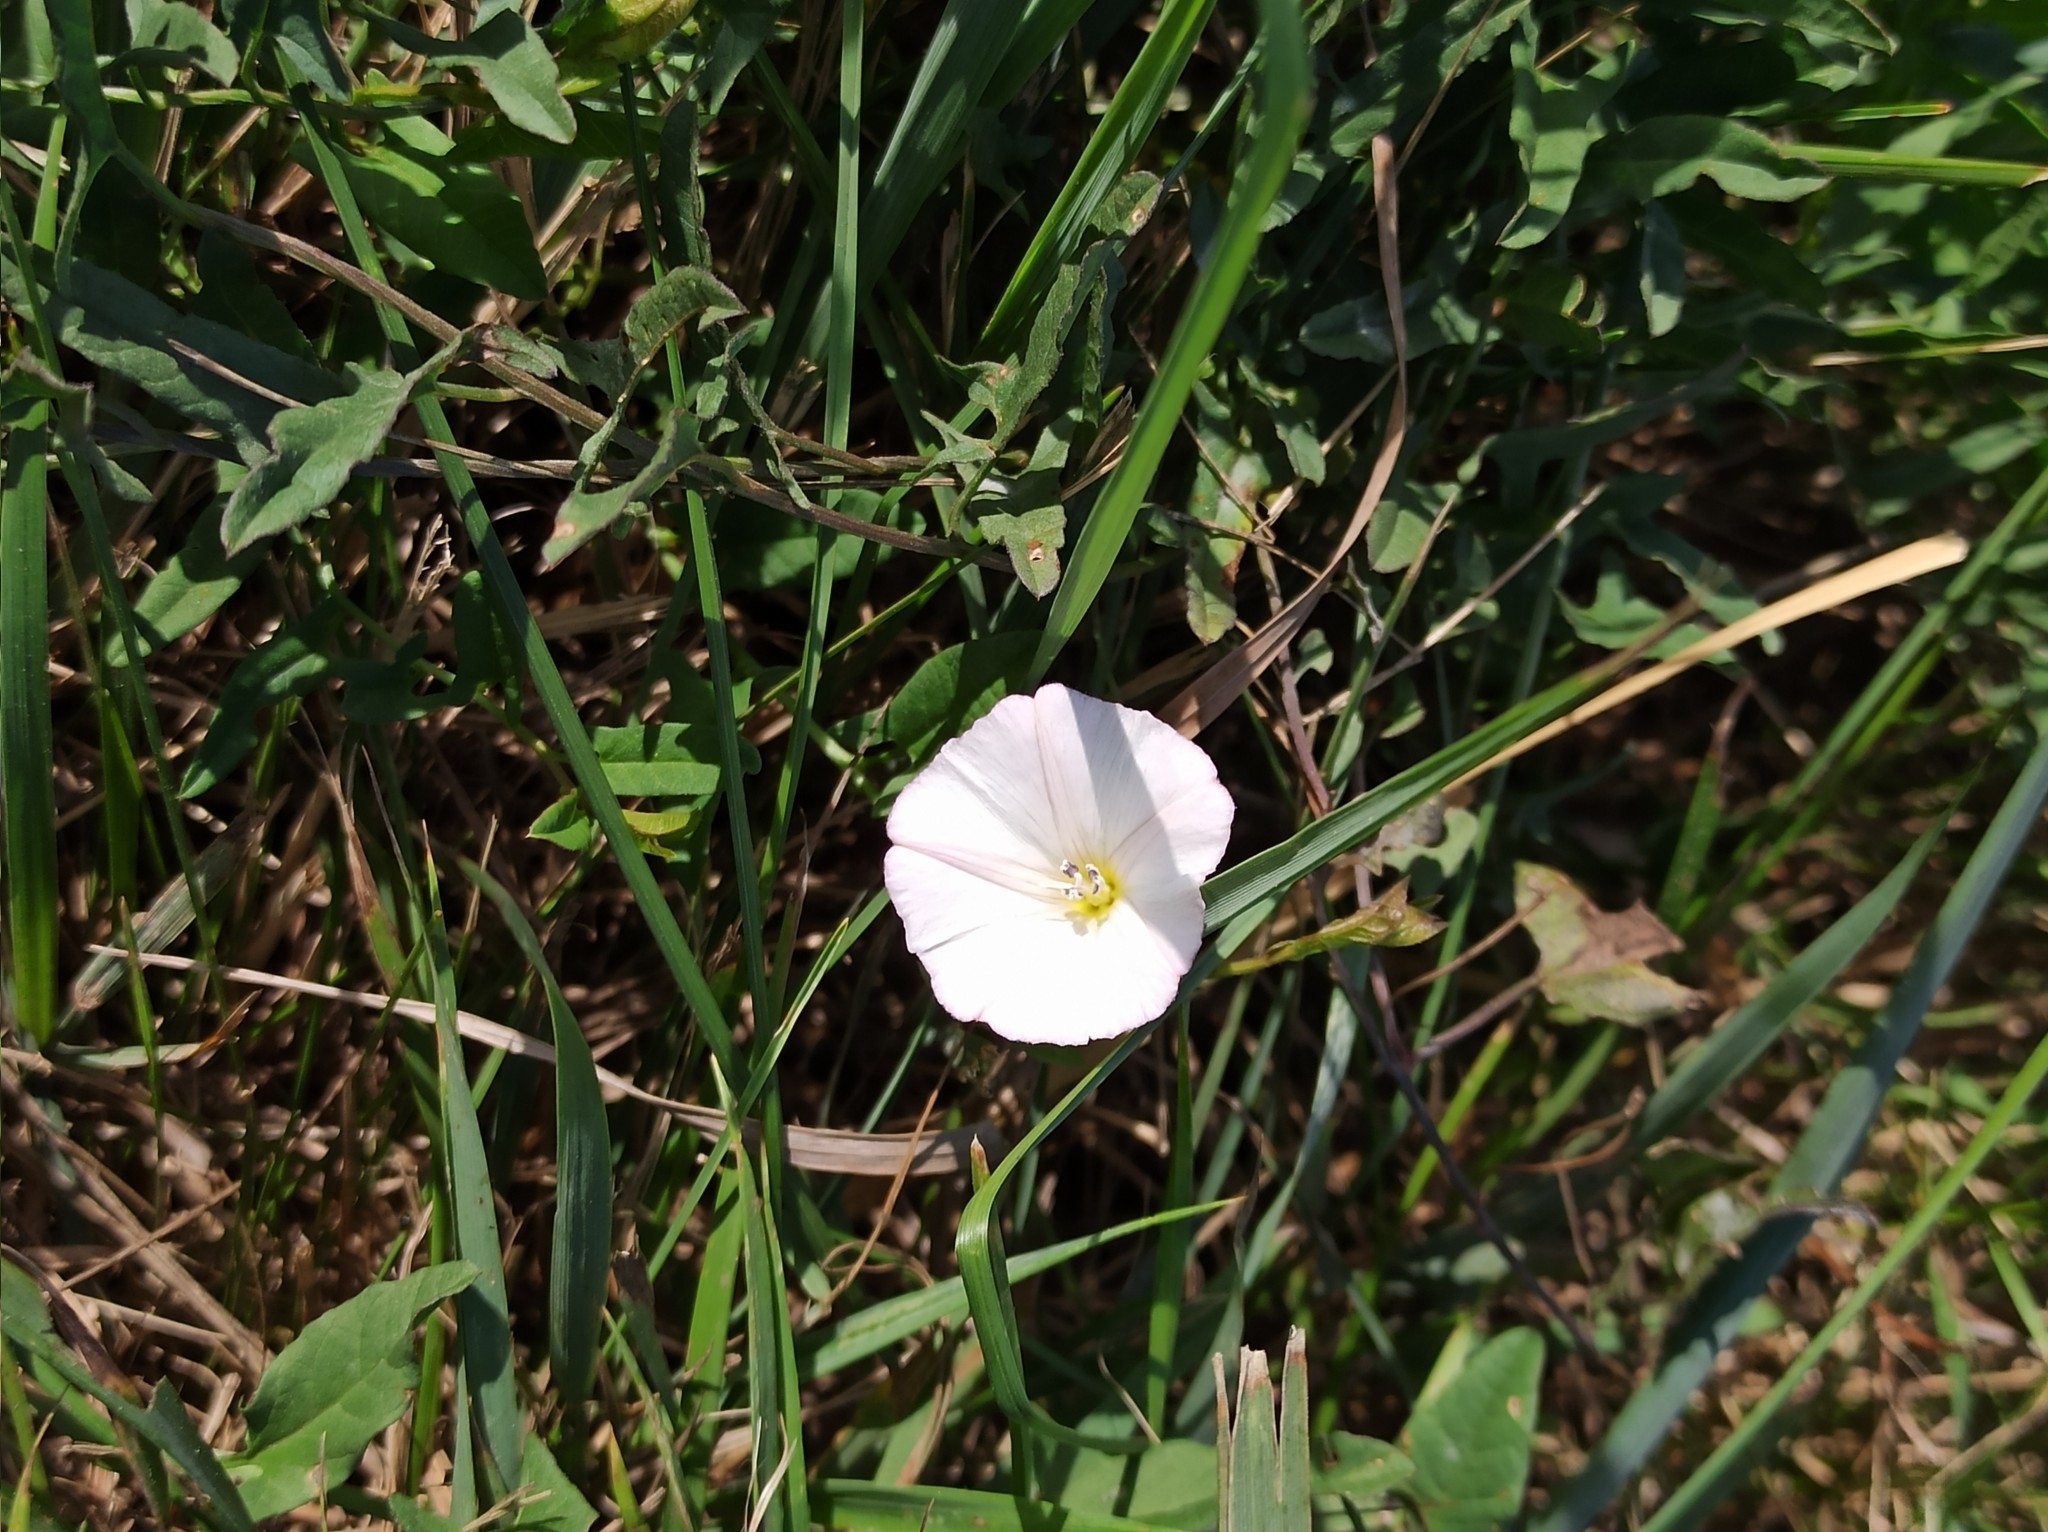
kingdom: Plantae
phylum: Tracheophyta
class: Magnoliopsida
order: Solanales
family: Convolvulaceae
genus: Convolvulus
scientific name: Convolvulus arvensis
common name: Field bindweed
